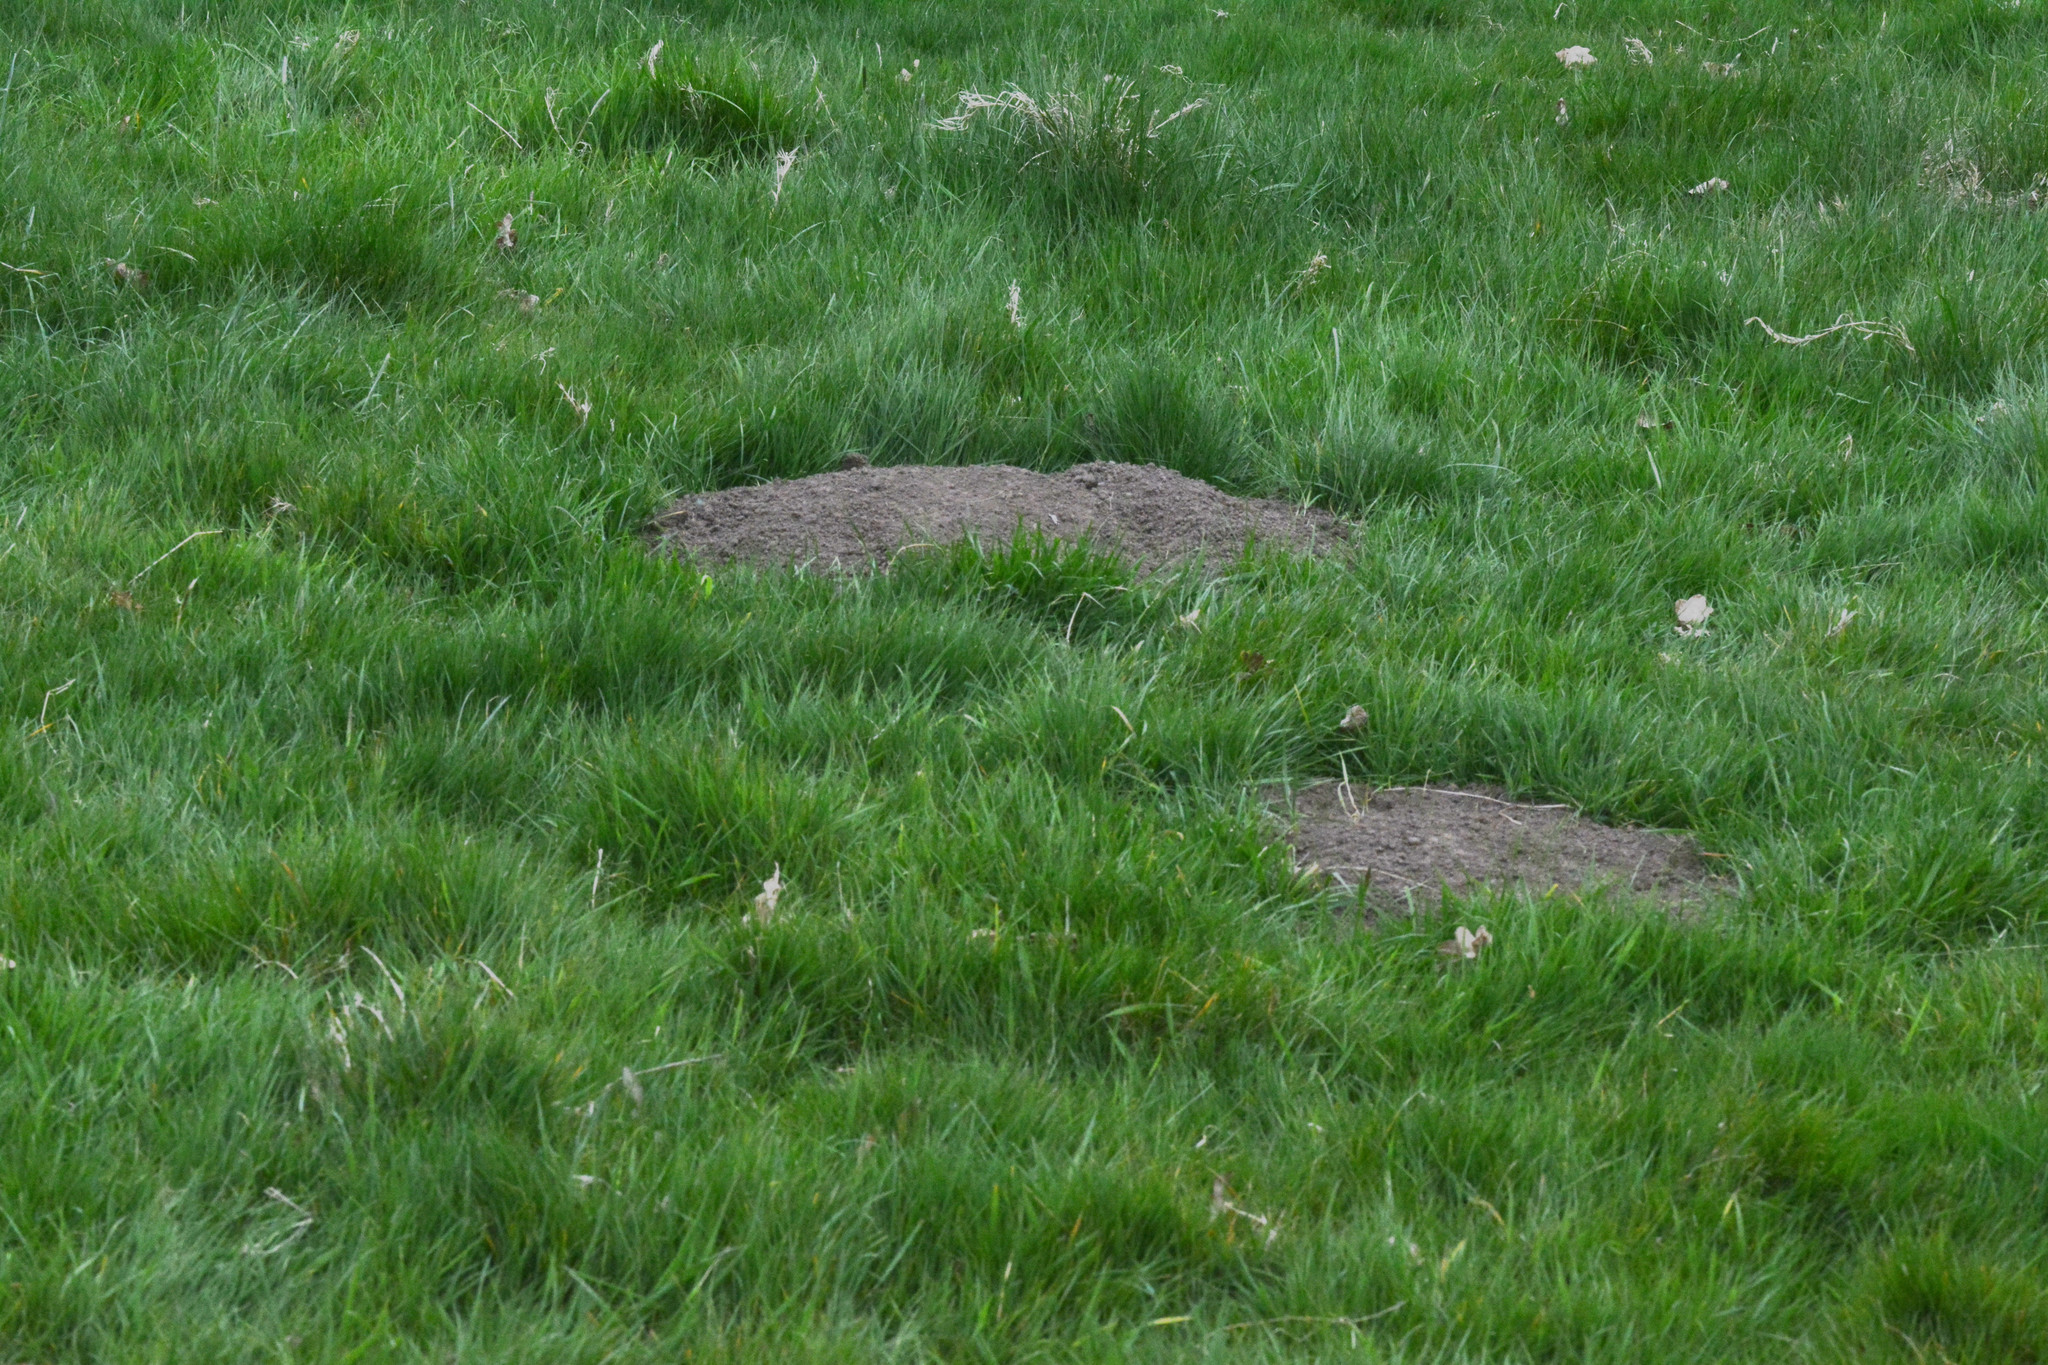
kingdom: Animalia
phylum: Chordata
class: Mammalia
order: Soricomorpha
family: Talpidae
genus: Talpa
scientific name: Talpa europaea
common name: European mole
